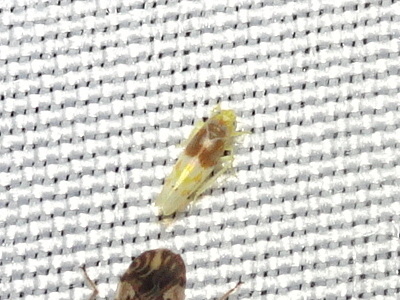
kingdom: Animalia
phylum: Arthropoda
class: Insecta
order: Hemiptera
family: Cicadellidae
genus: Eratoneura
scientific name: Eratoneura affinis
